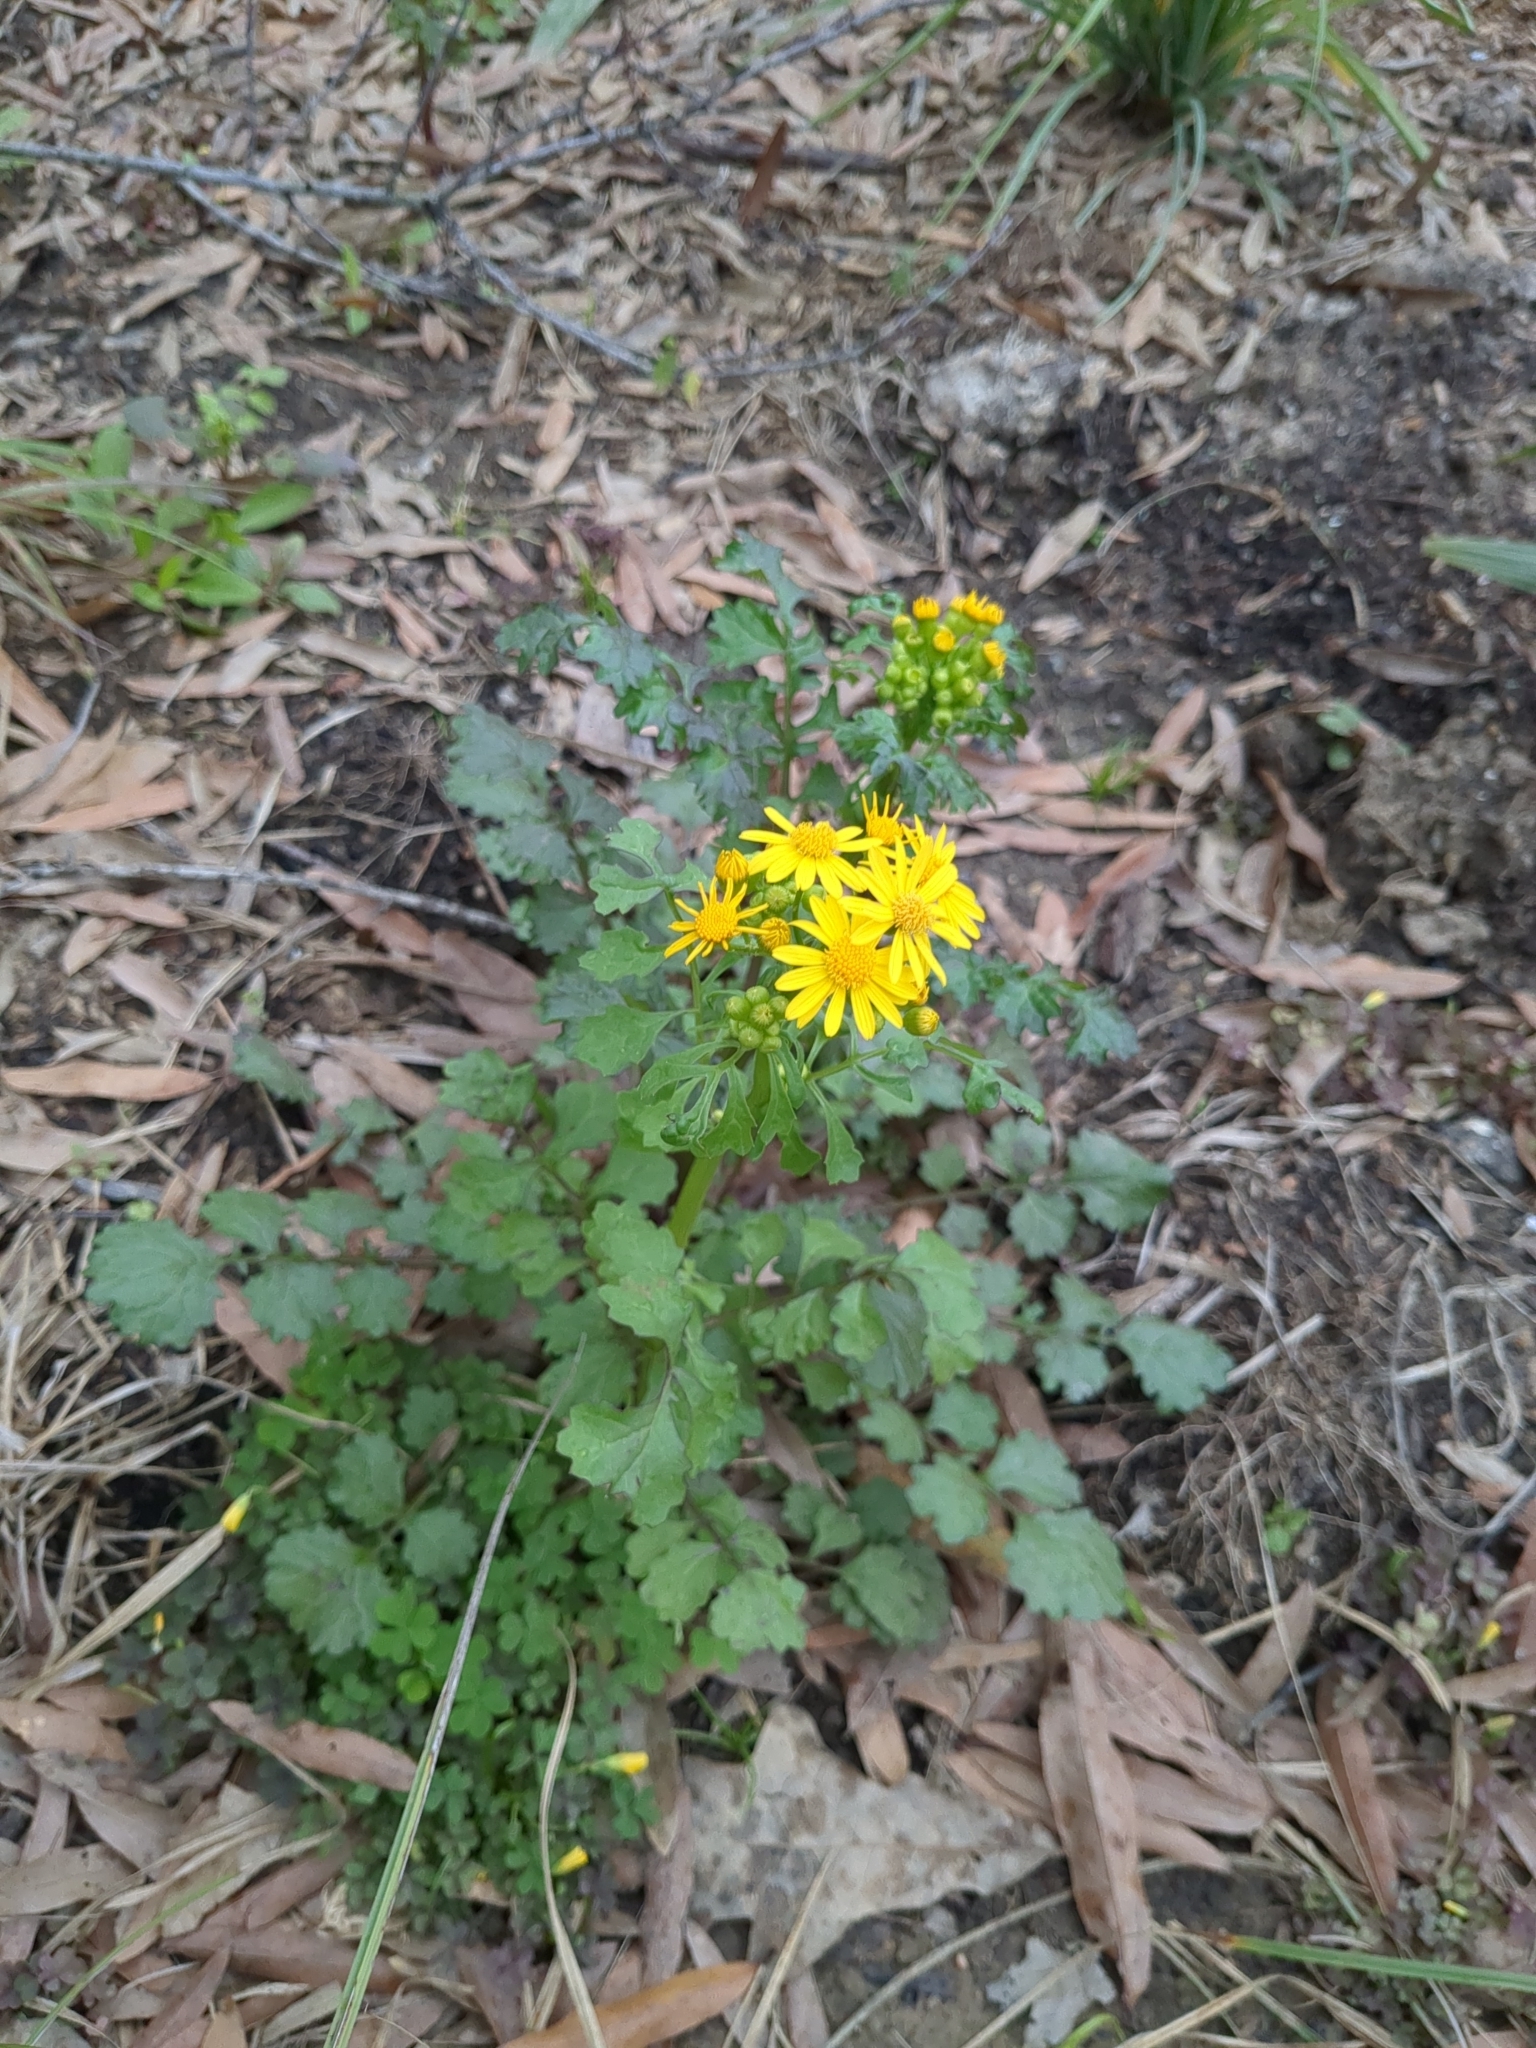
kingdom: Plantae
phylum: Tracheophyta
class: Magnoliopsida
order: Asterales
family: Asteraceae
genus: Packera
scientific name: Packera glabella
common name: Butterweed
